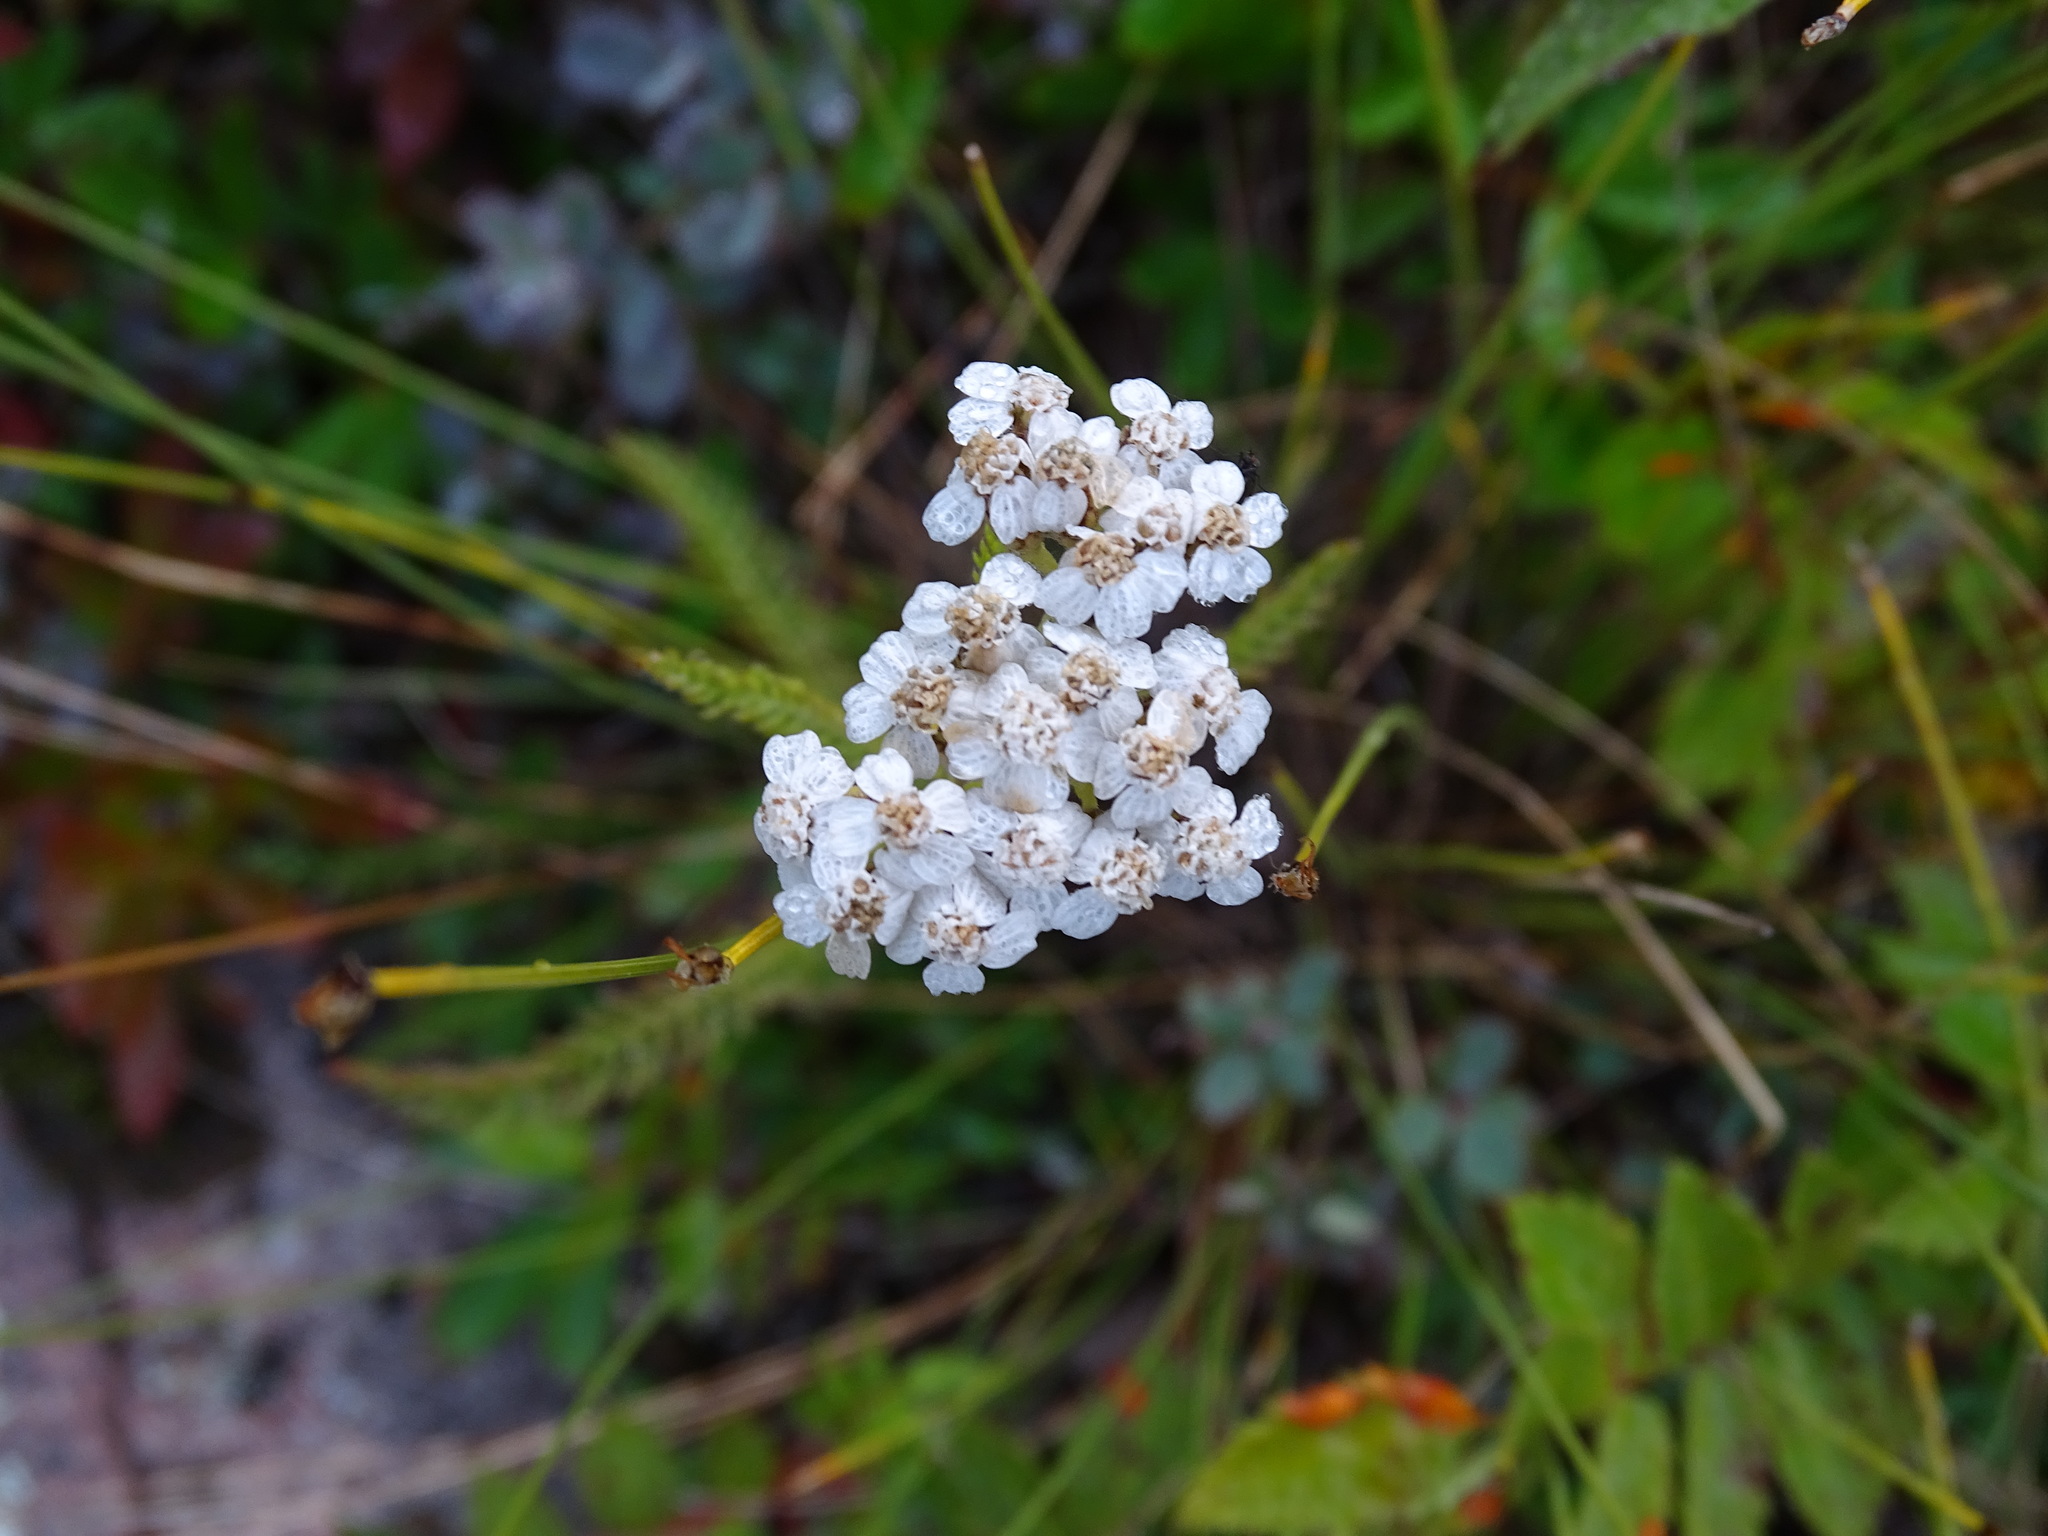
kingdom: Plantae
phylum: Tracheophyta
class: Magnoliopsida
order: Asterales
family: Asteraceae
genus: Achillea
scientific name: Achillea millefolium
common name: Yarrow
